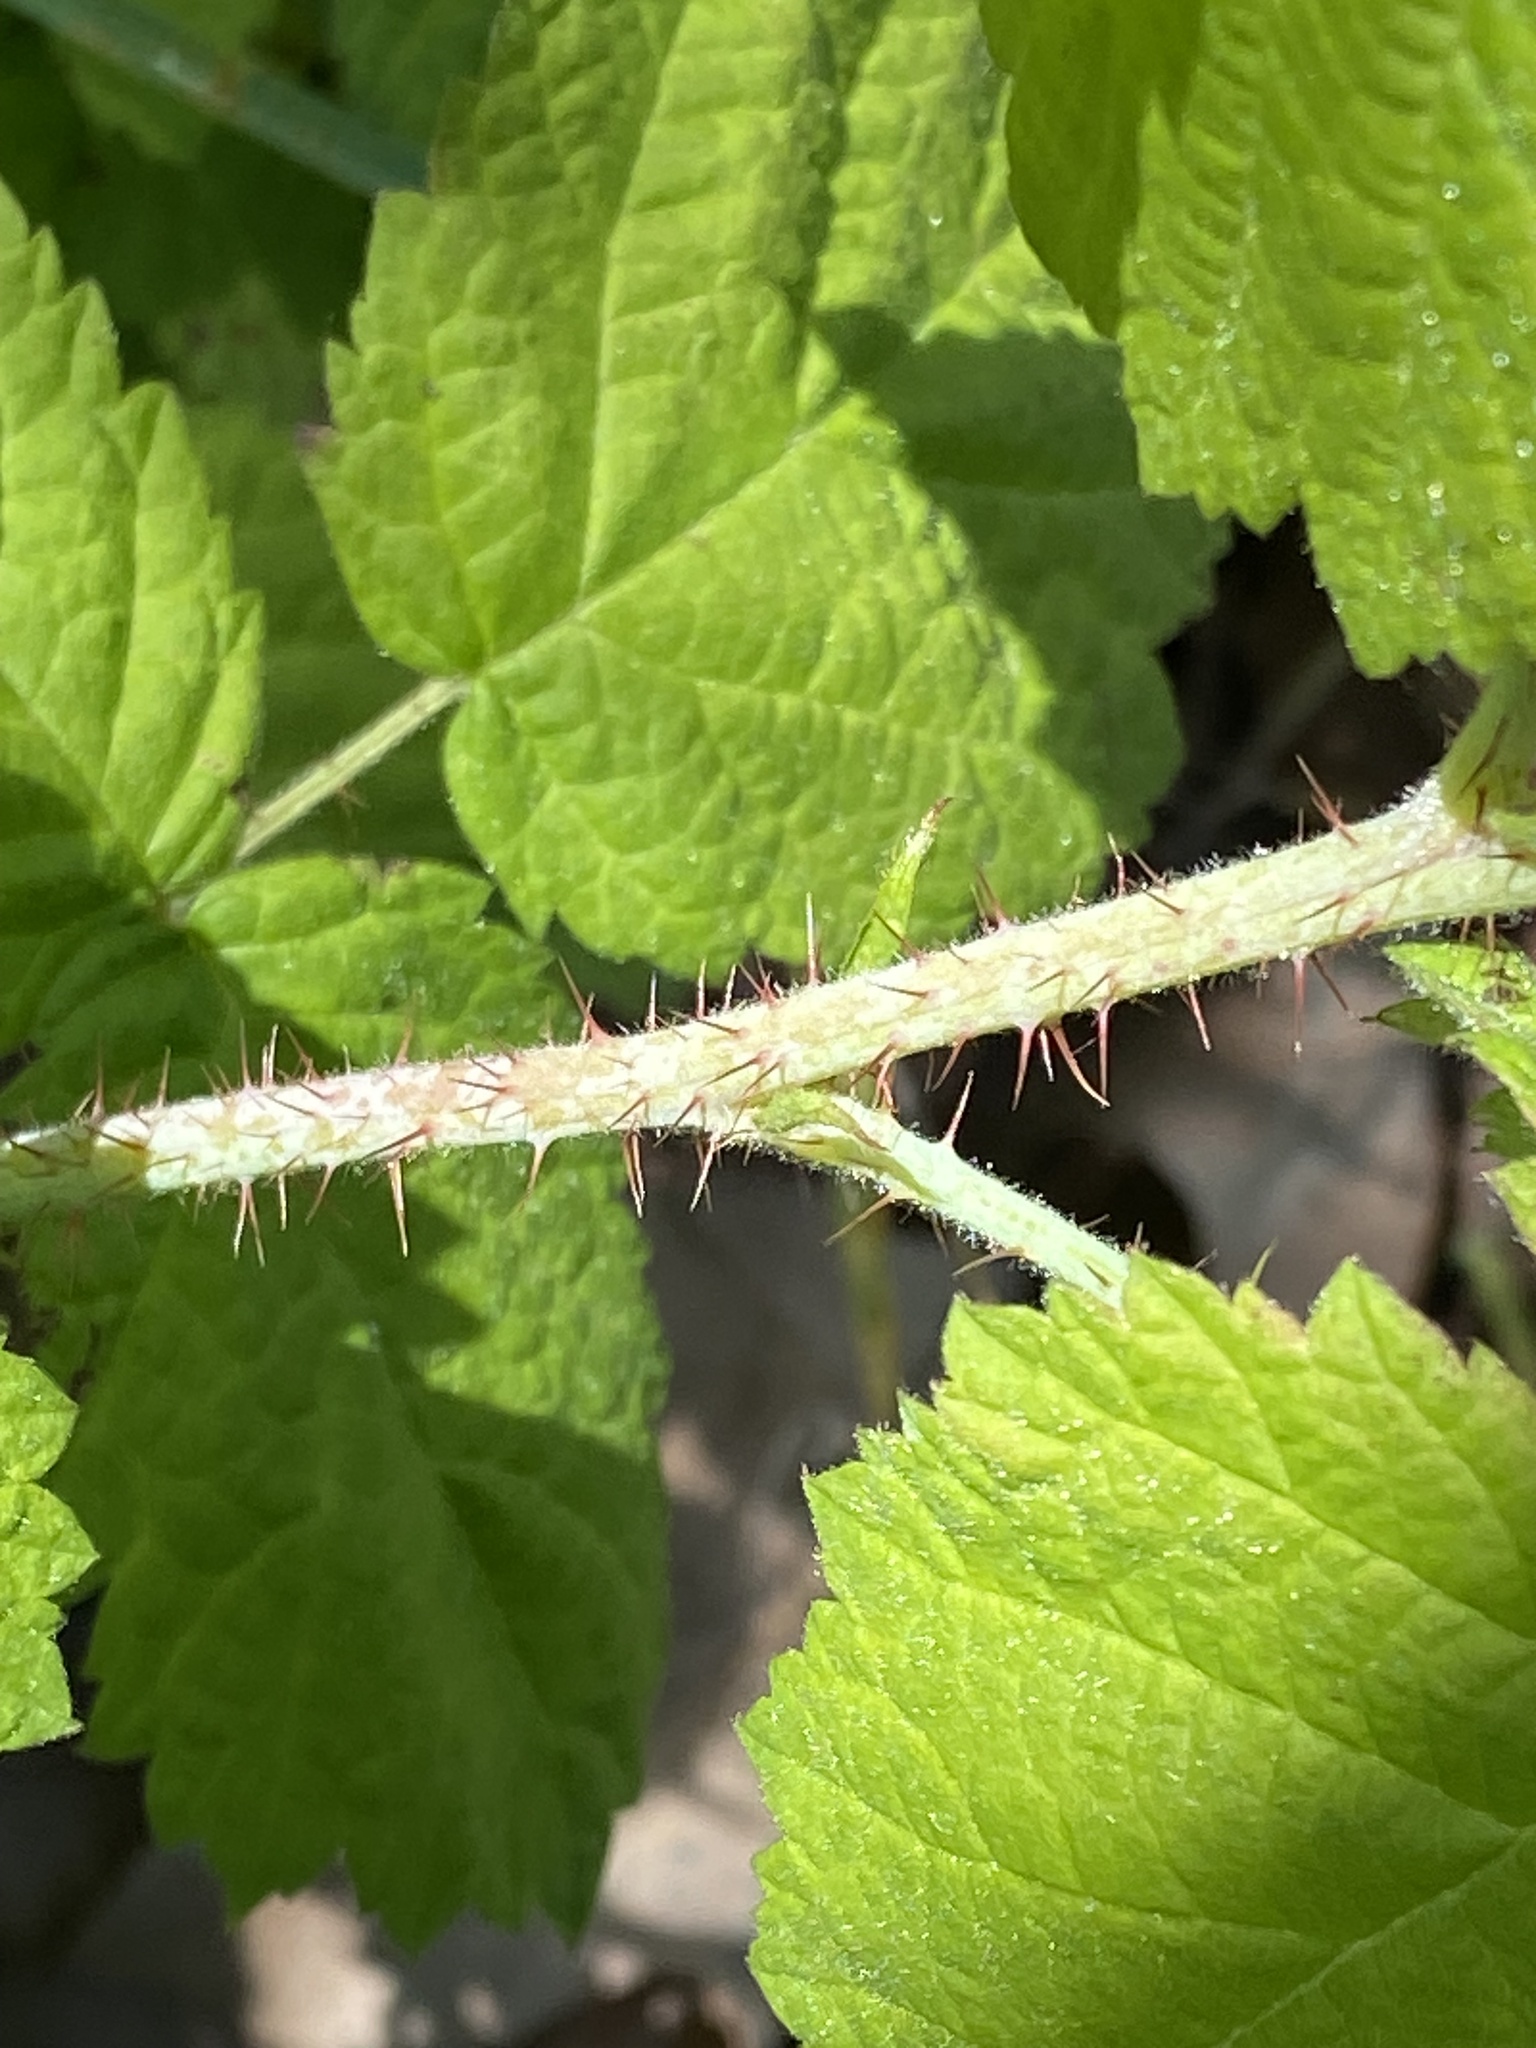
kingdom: Plantae
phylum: Tracheophyta
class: Magnoliopsida
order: Rosales
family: Rosaceae
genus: Rubus
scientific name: Rubus ursinus
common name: Pacific blackberry
